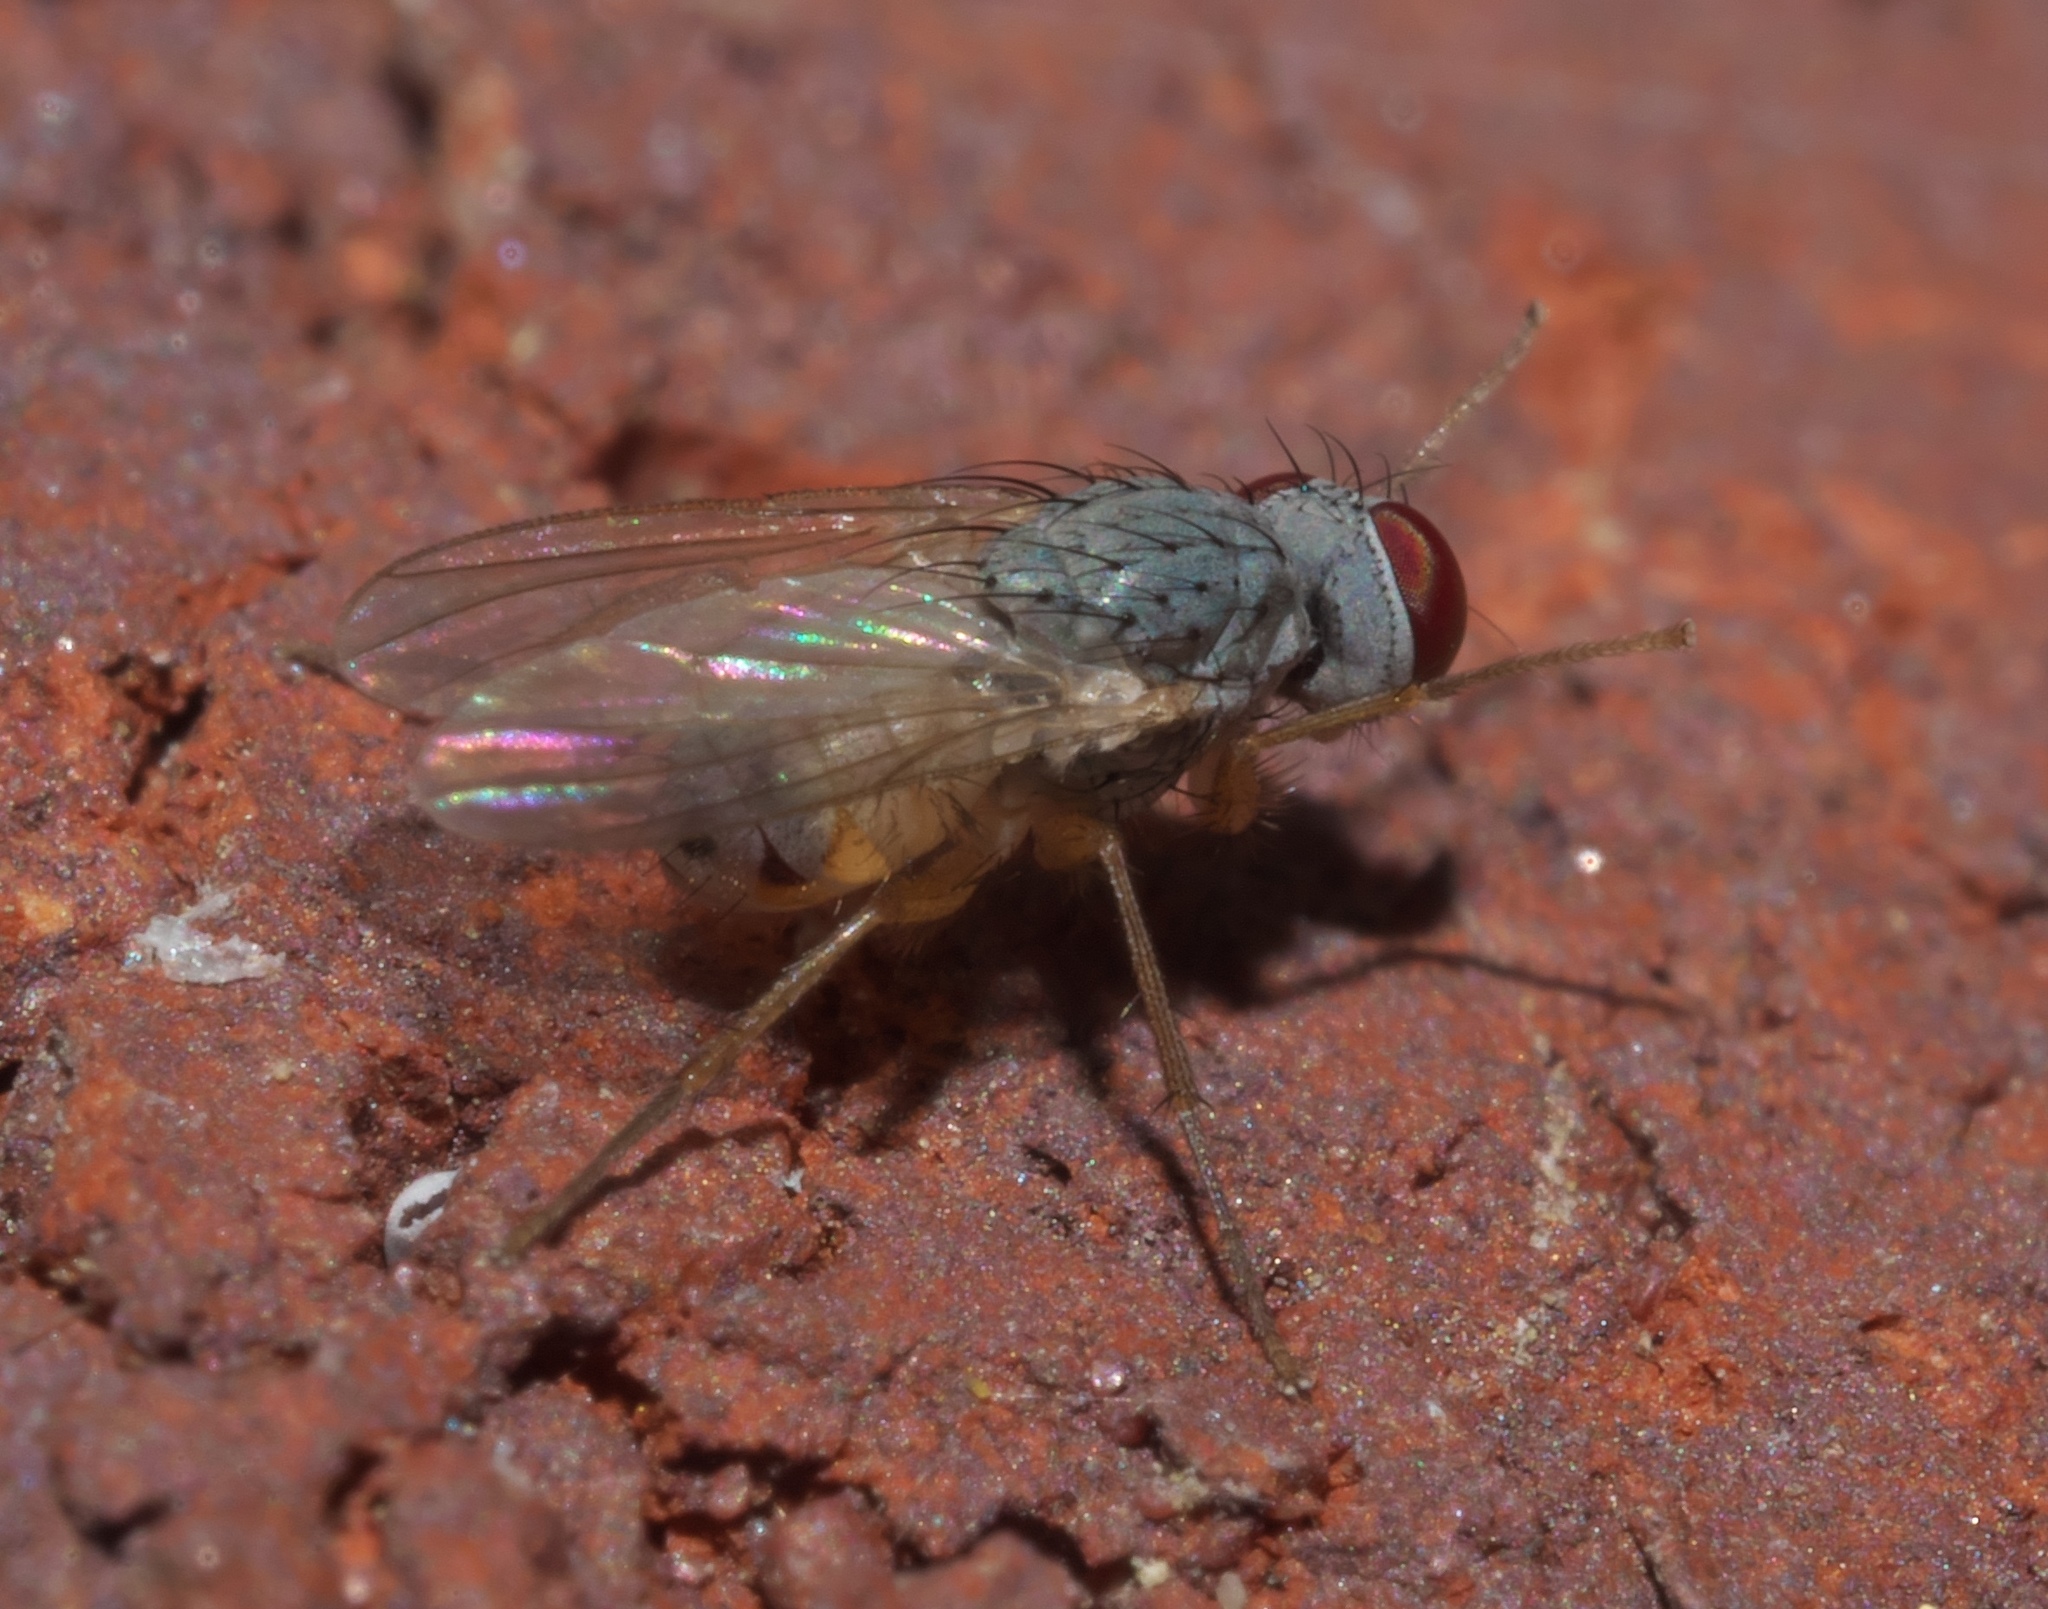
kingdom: Animalia
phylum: Arthropoda
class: Insecta
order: Diptera
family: Muscidae
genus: Neodexiopsis
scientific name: Neodexiopsis calopyga
